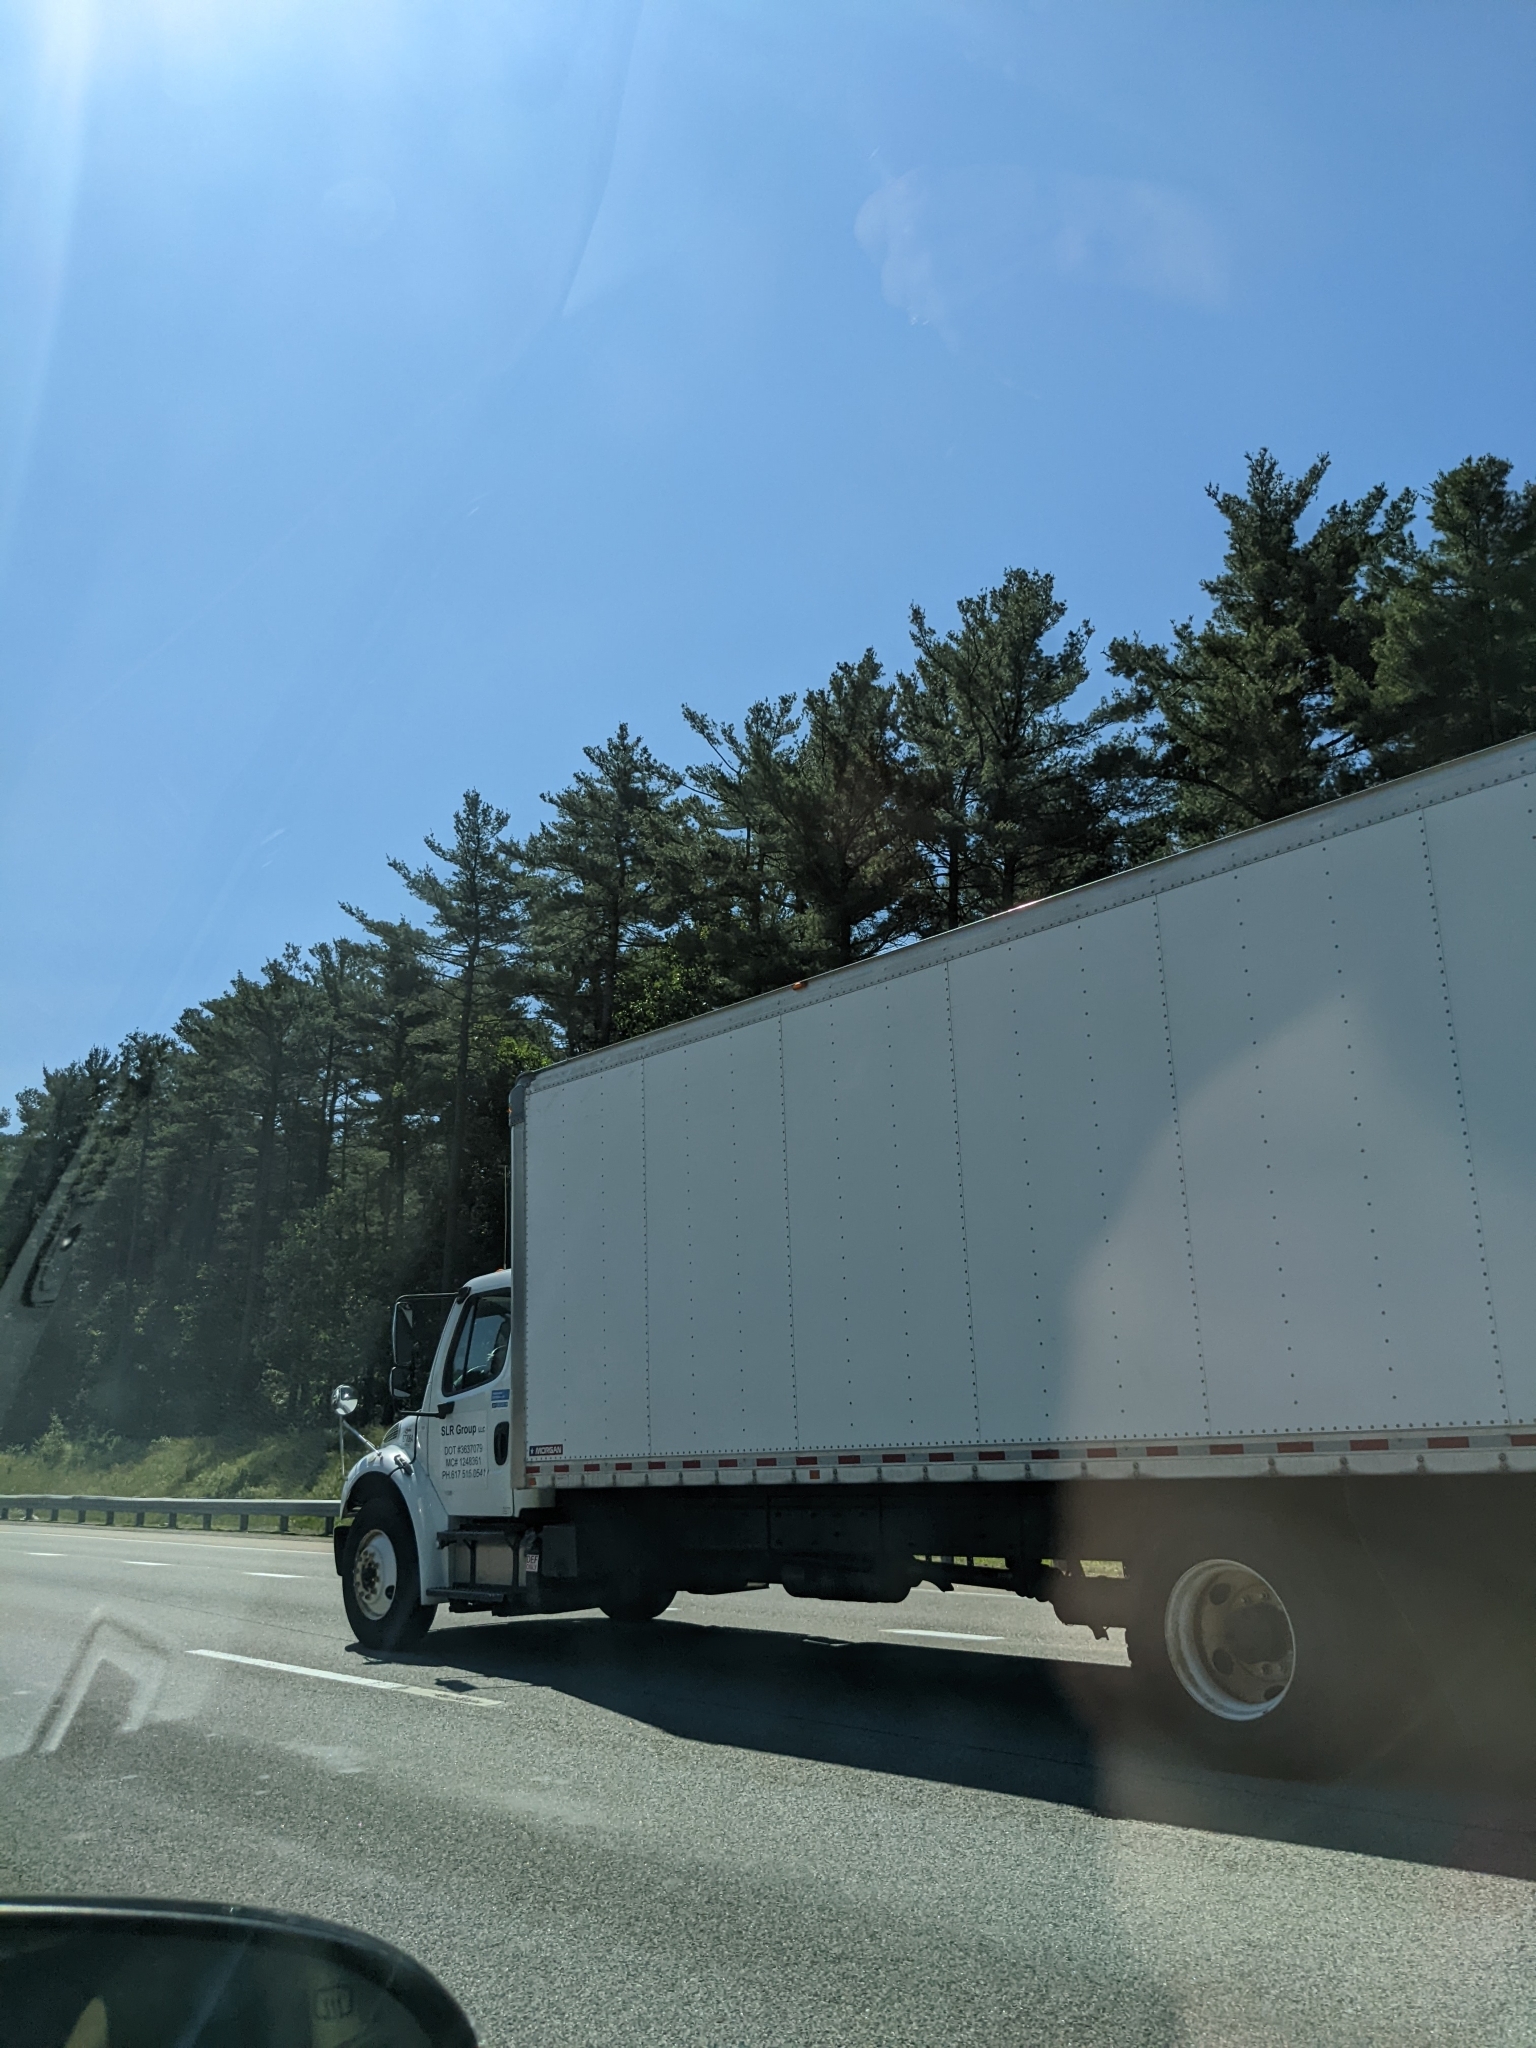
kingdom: Plantae
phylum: Tracheophyta
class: Pinopsida
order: Pinales
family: Pinaceae
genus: Pinus
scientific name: Pinus strobus
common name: Weymouth pine
